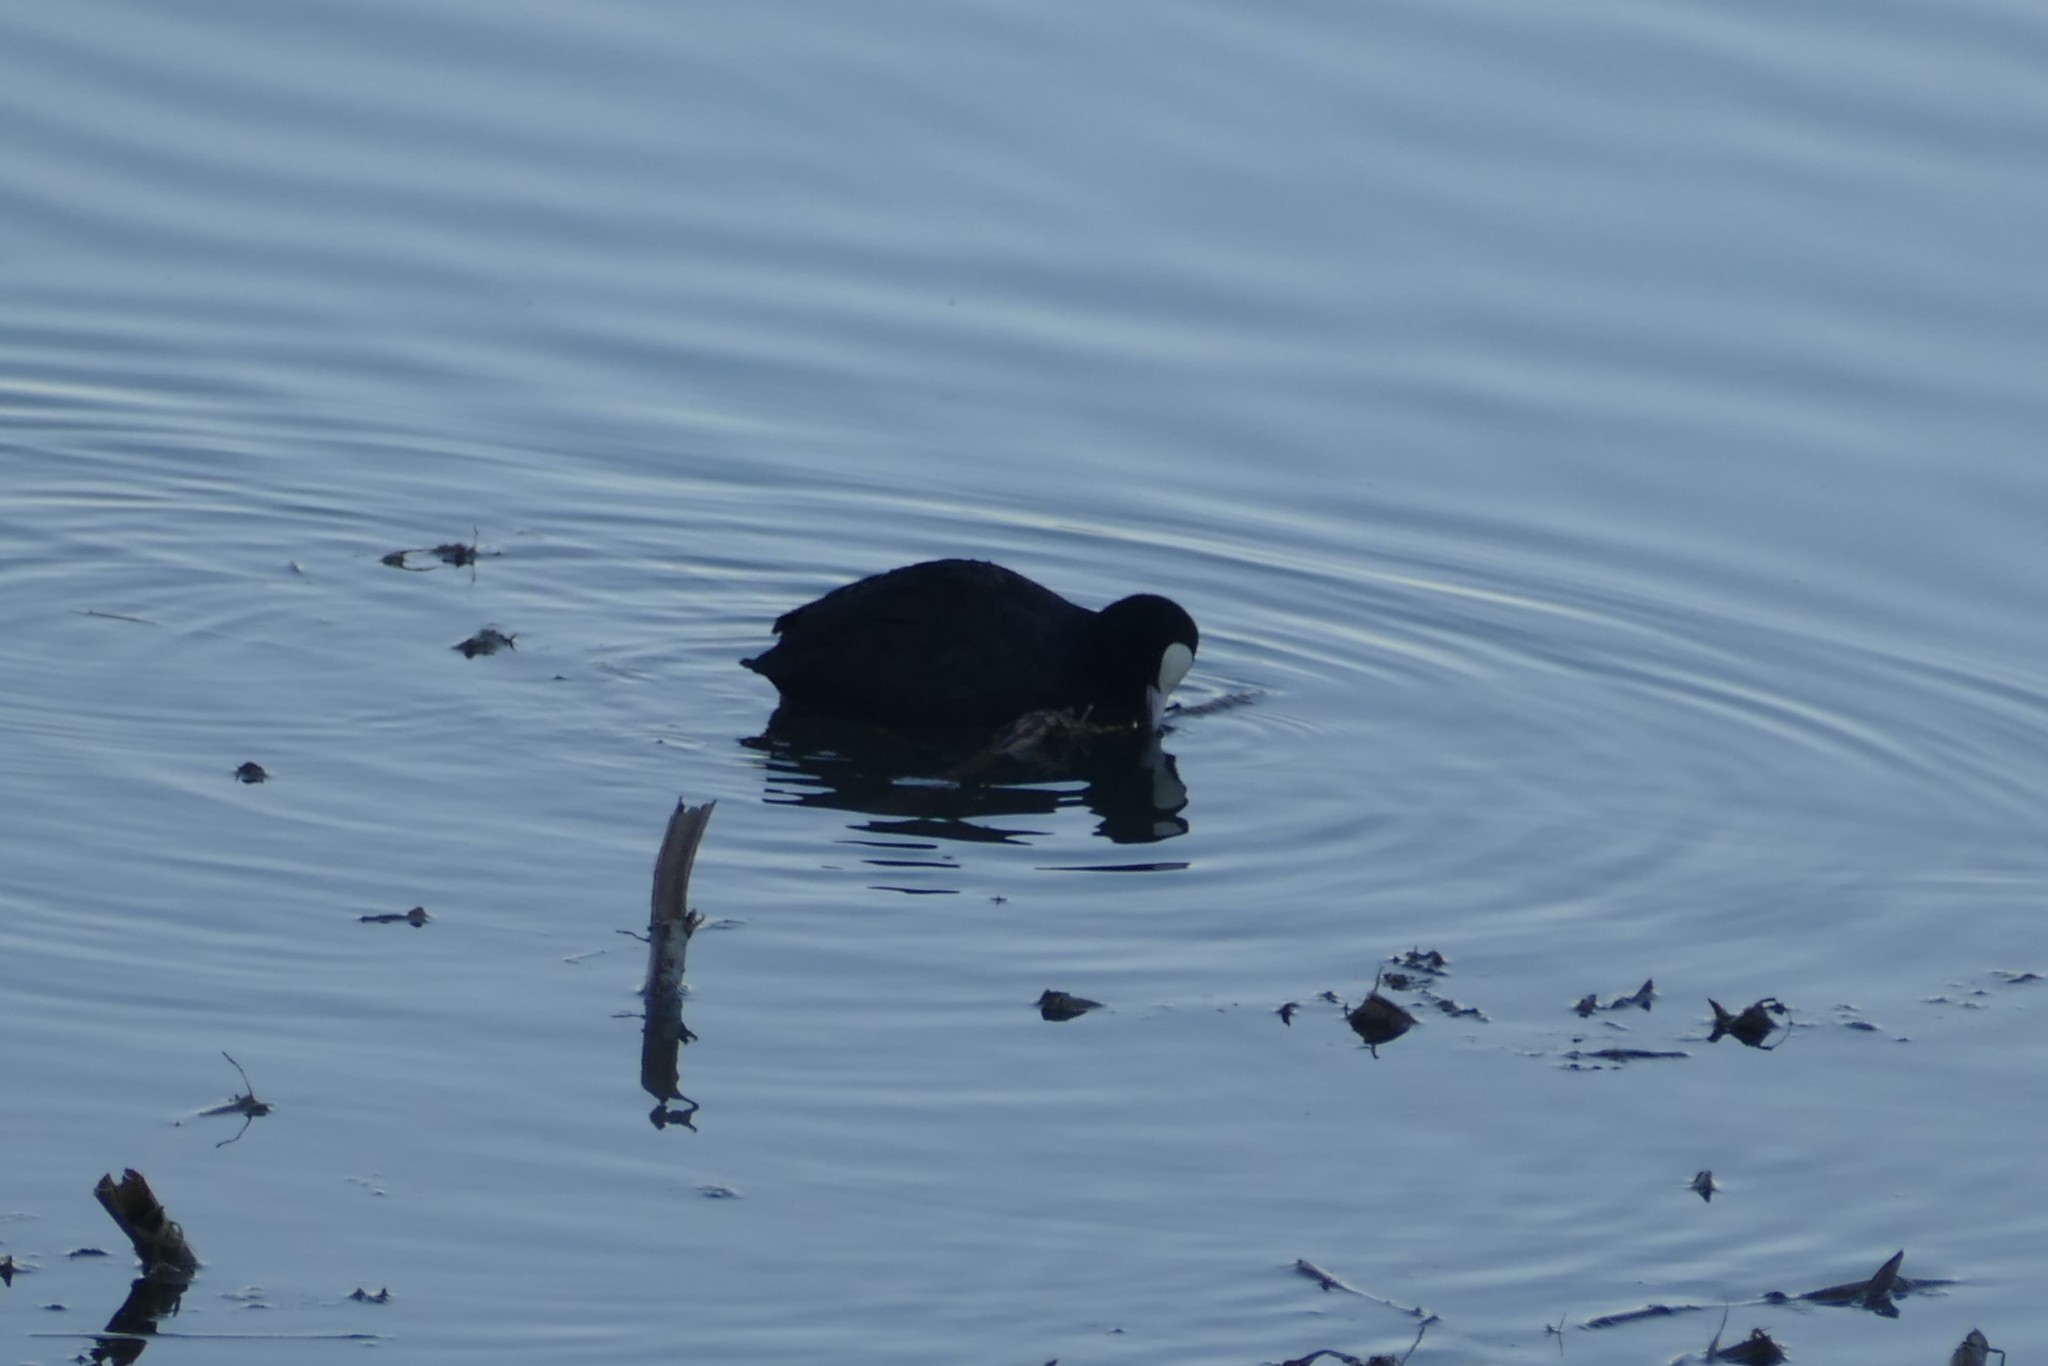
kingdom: Animalia
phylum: Chordata
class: Aves
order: Gruiformes
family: Rallidae
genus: Fulica
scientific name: Fulica atra
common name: Eurasian coot
